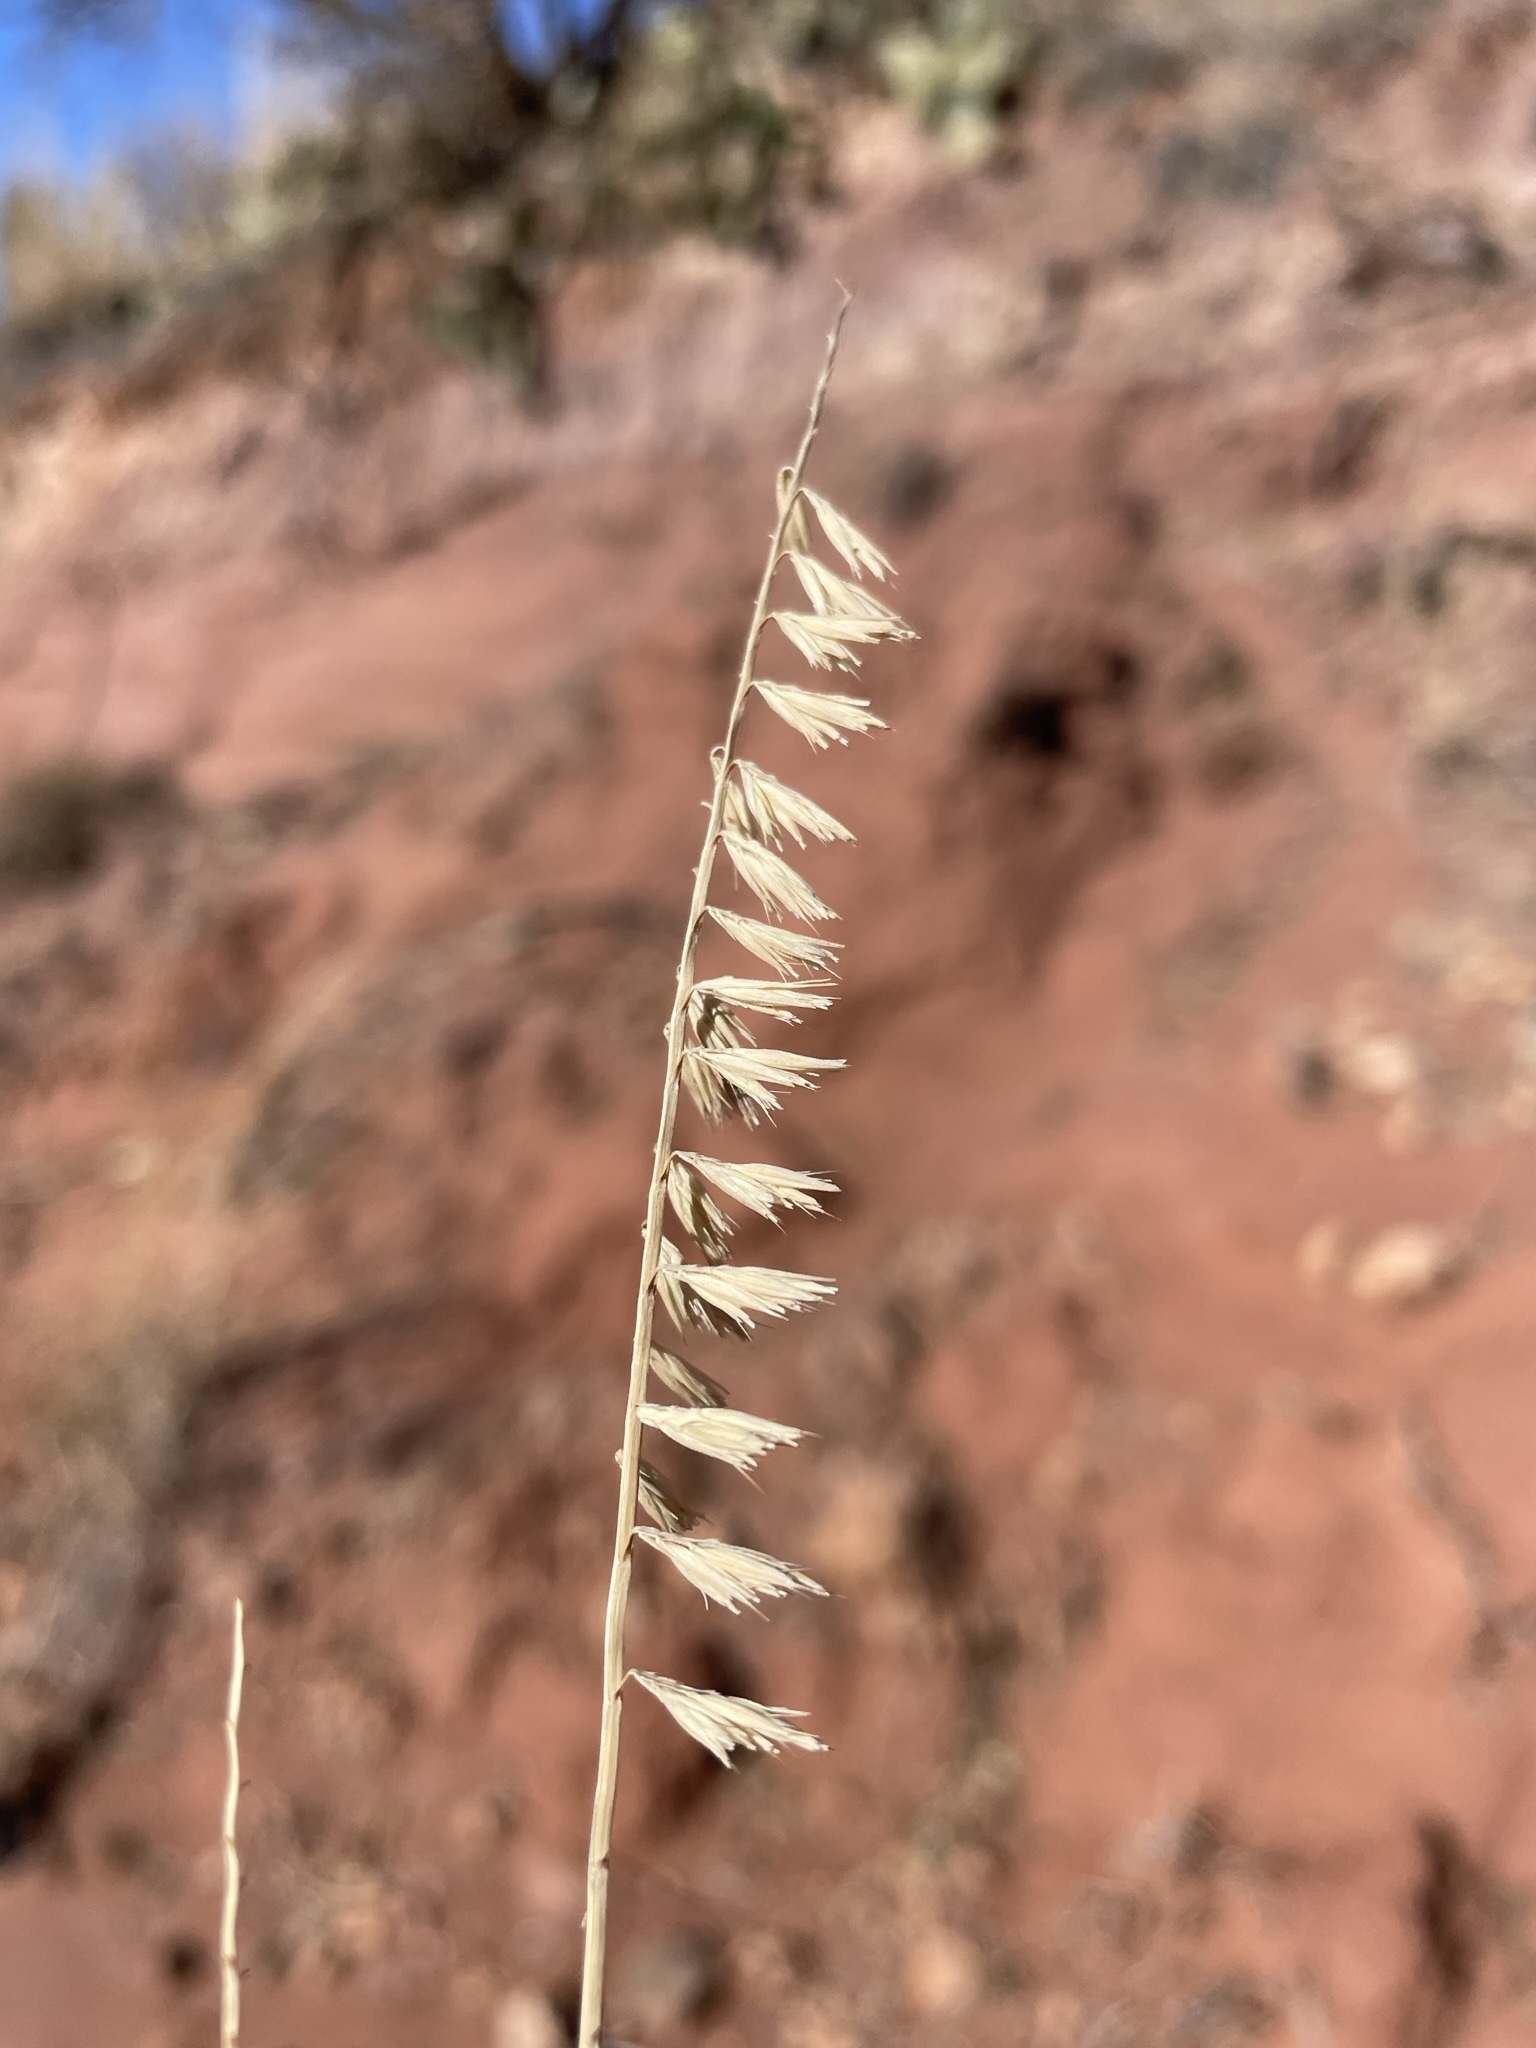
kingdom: Plantae
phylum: Tracheophyta
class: Liliopsida
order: Poales
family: Poaceae
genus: Bouteloua
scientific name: Bouteloua curtipendula
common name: Side-oats grama
